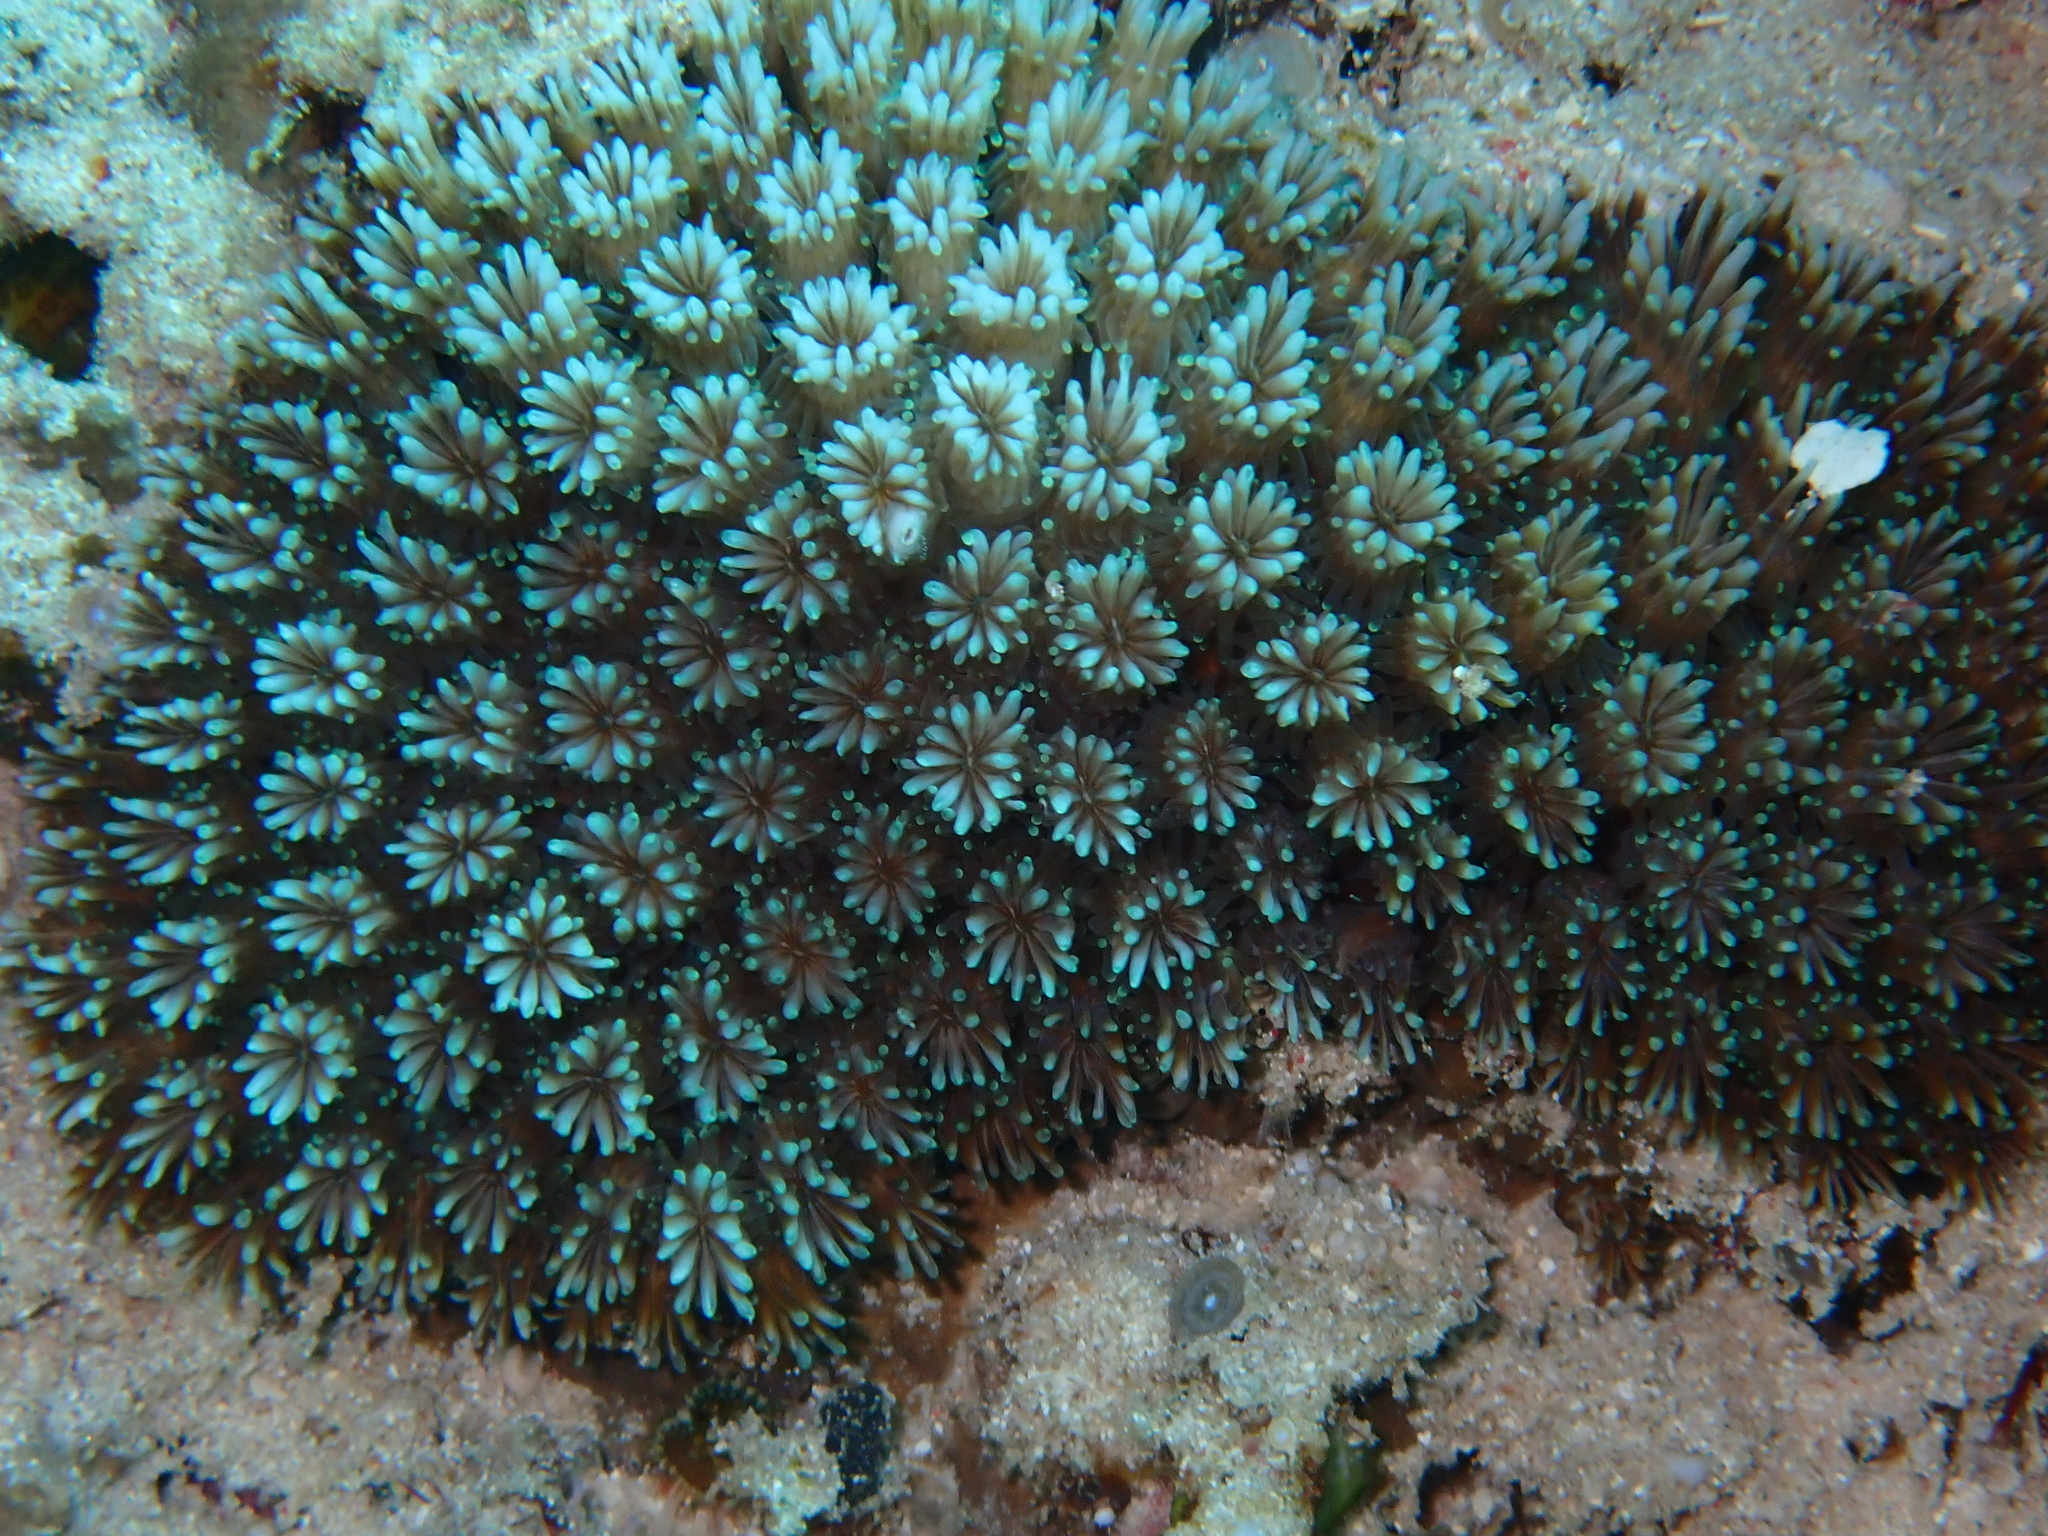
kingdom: Animalia
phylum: Cnidaria
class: Anthozoa
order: Scleractinia
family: Euphylliidae
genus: Galaxea
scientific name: Galaxea fascicularis
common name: Octopus coral
